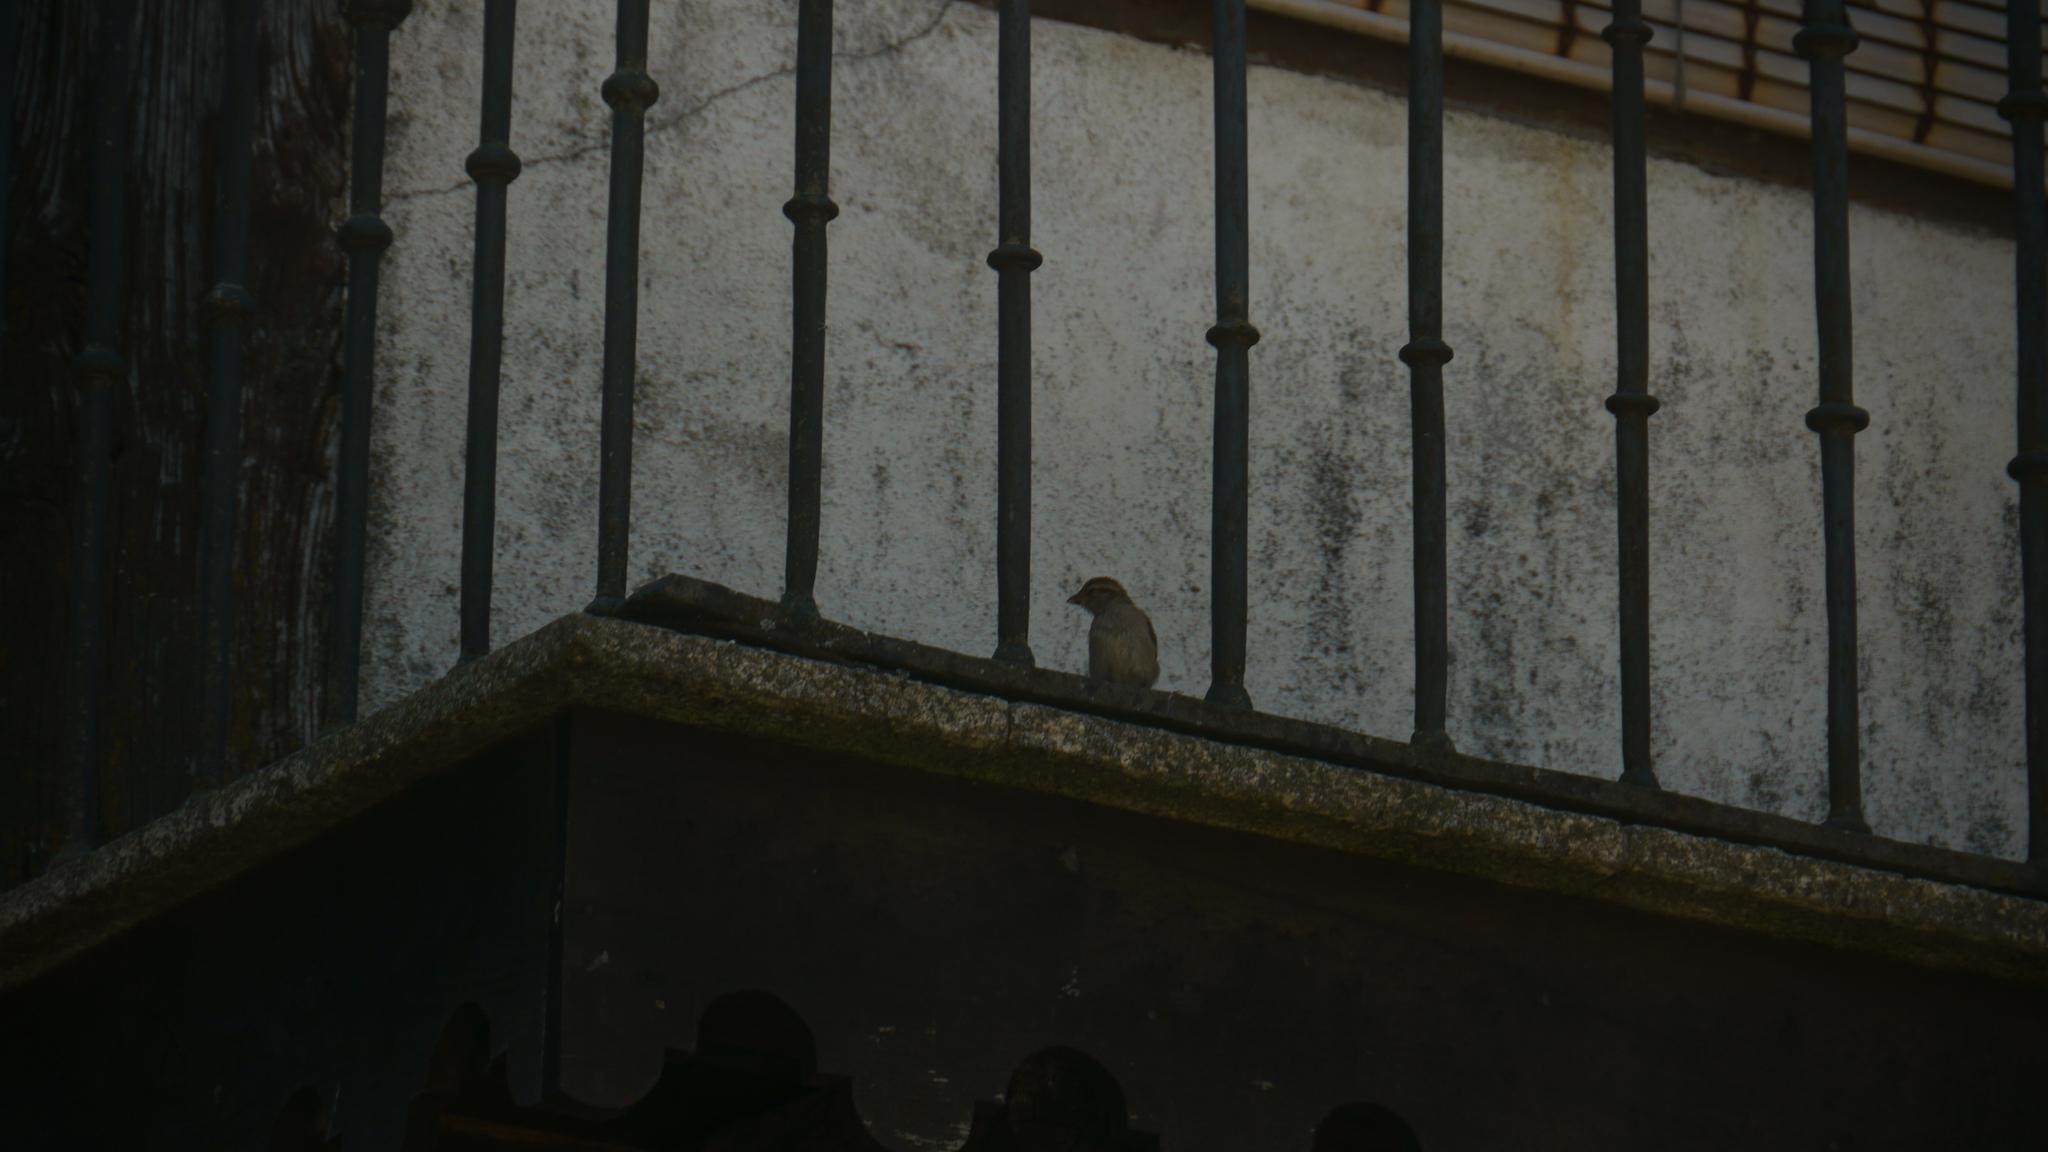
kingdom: Animalia
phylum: Chordata
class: Aves
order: Passeriformes
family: Passeridae
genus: Passer
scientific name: Passer domesticus
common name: House sparrow
